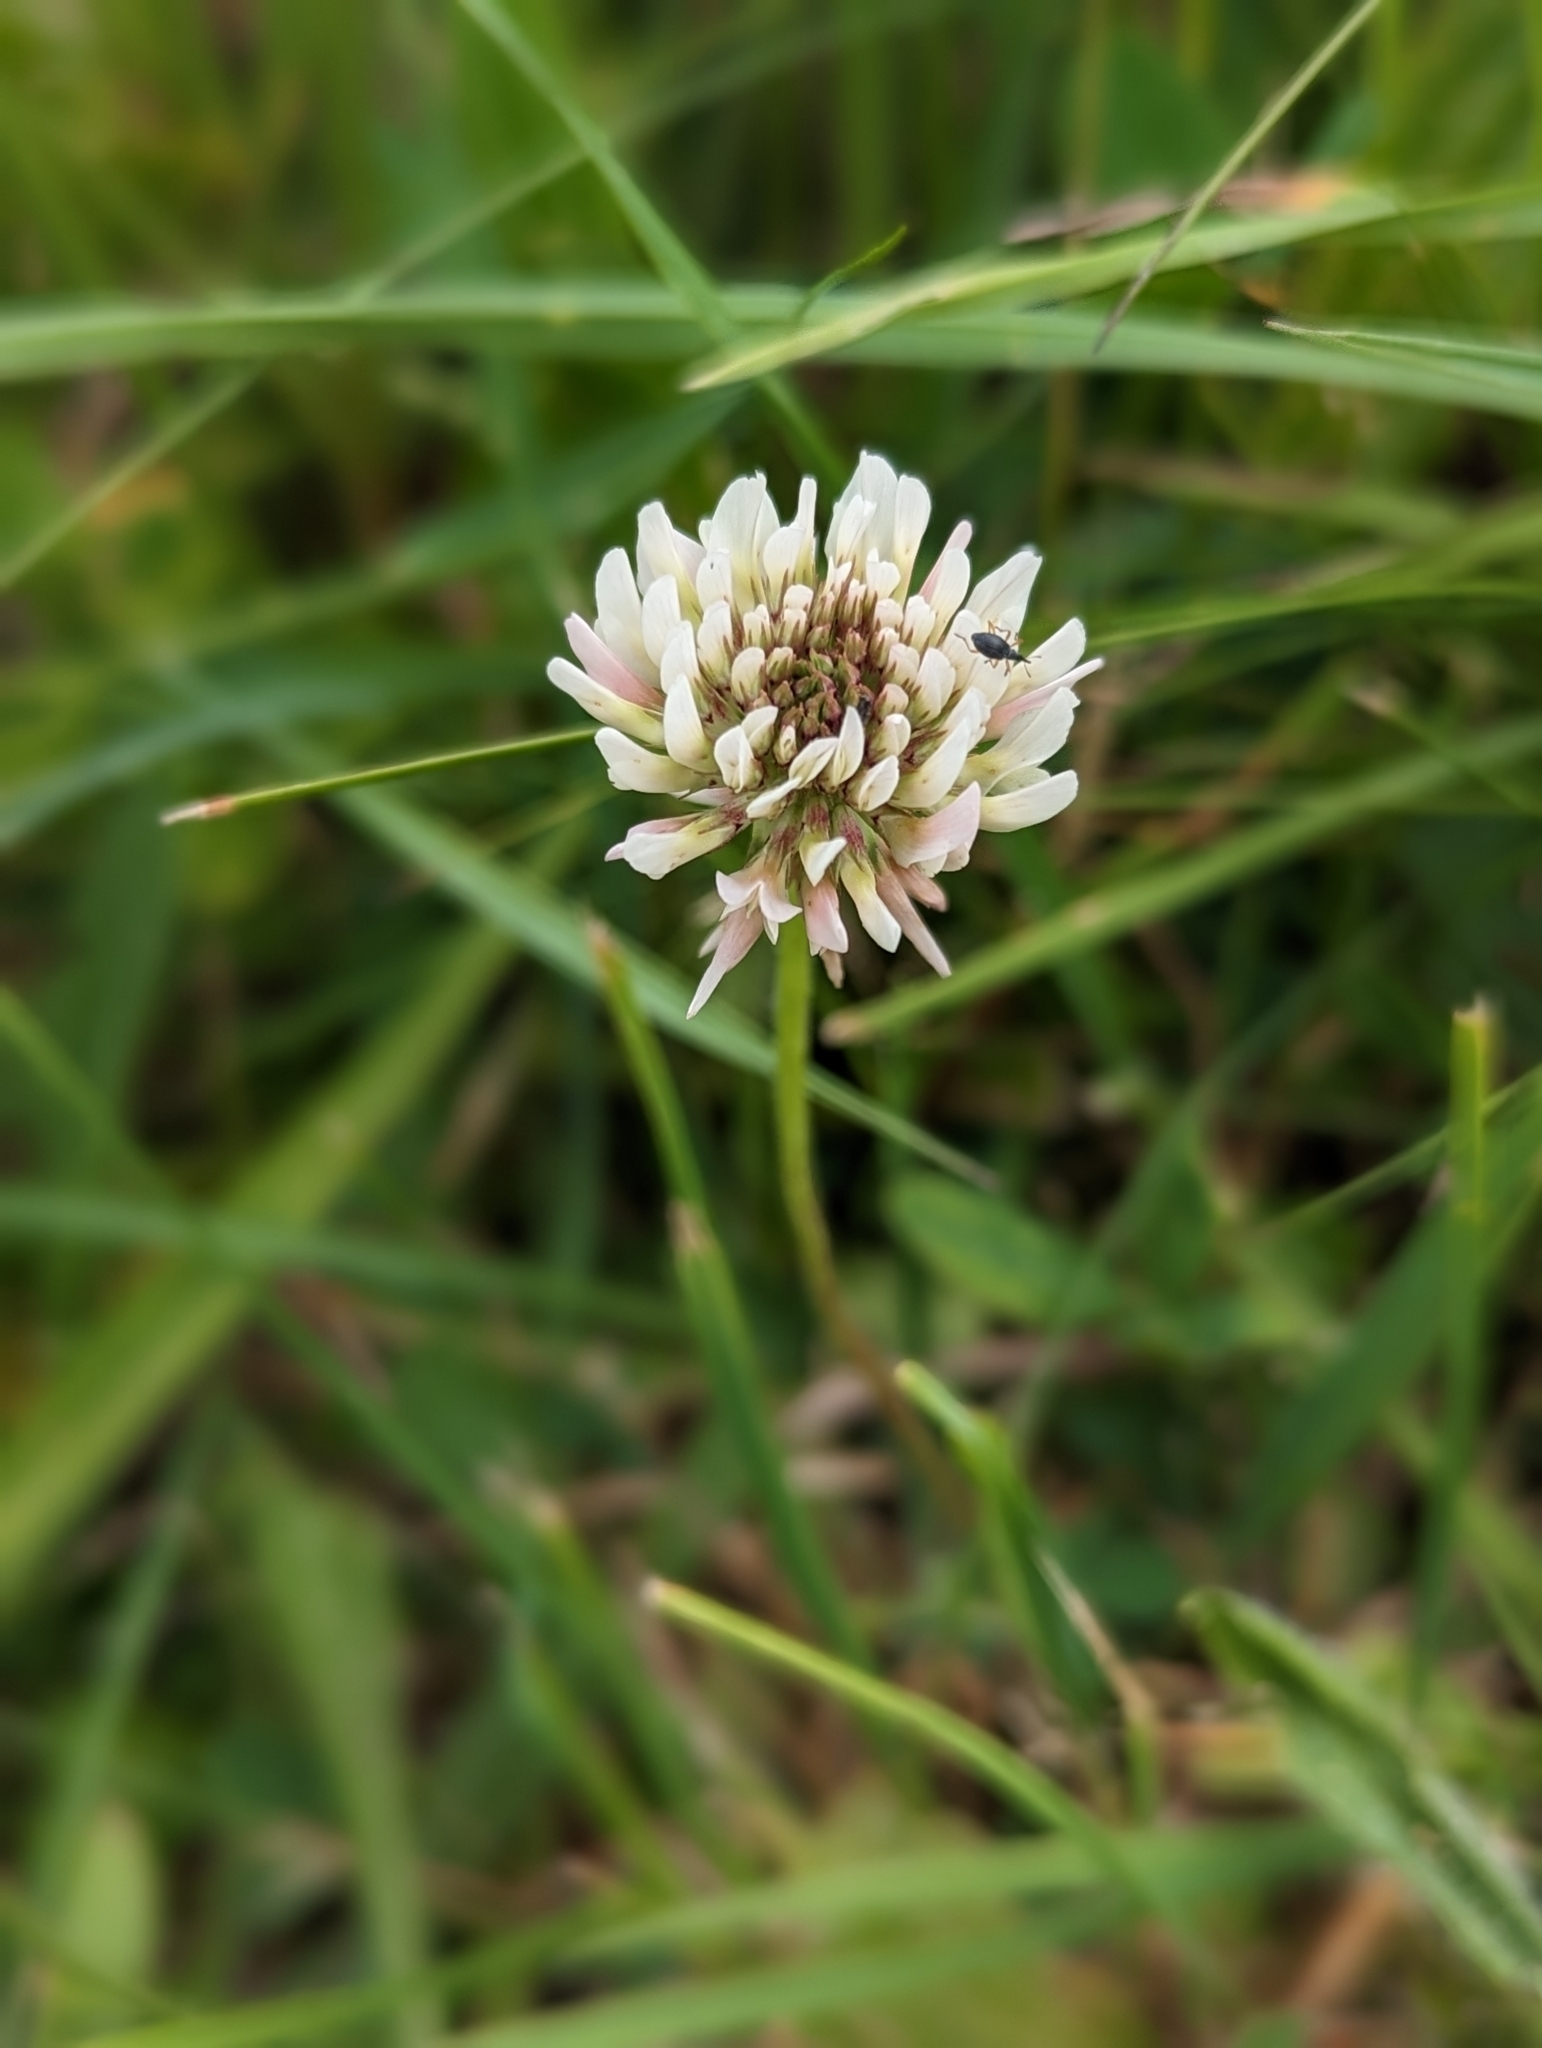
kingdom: Plantae
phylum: Tracheophyta
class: Magnoliopsida
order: Fabales
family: Fabaceae
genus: Trifolium
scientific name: Trifolium repens
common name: White clover
